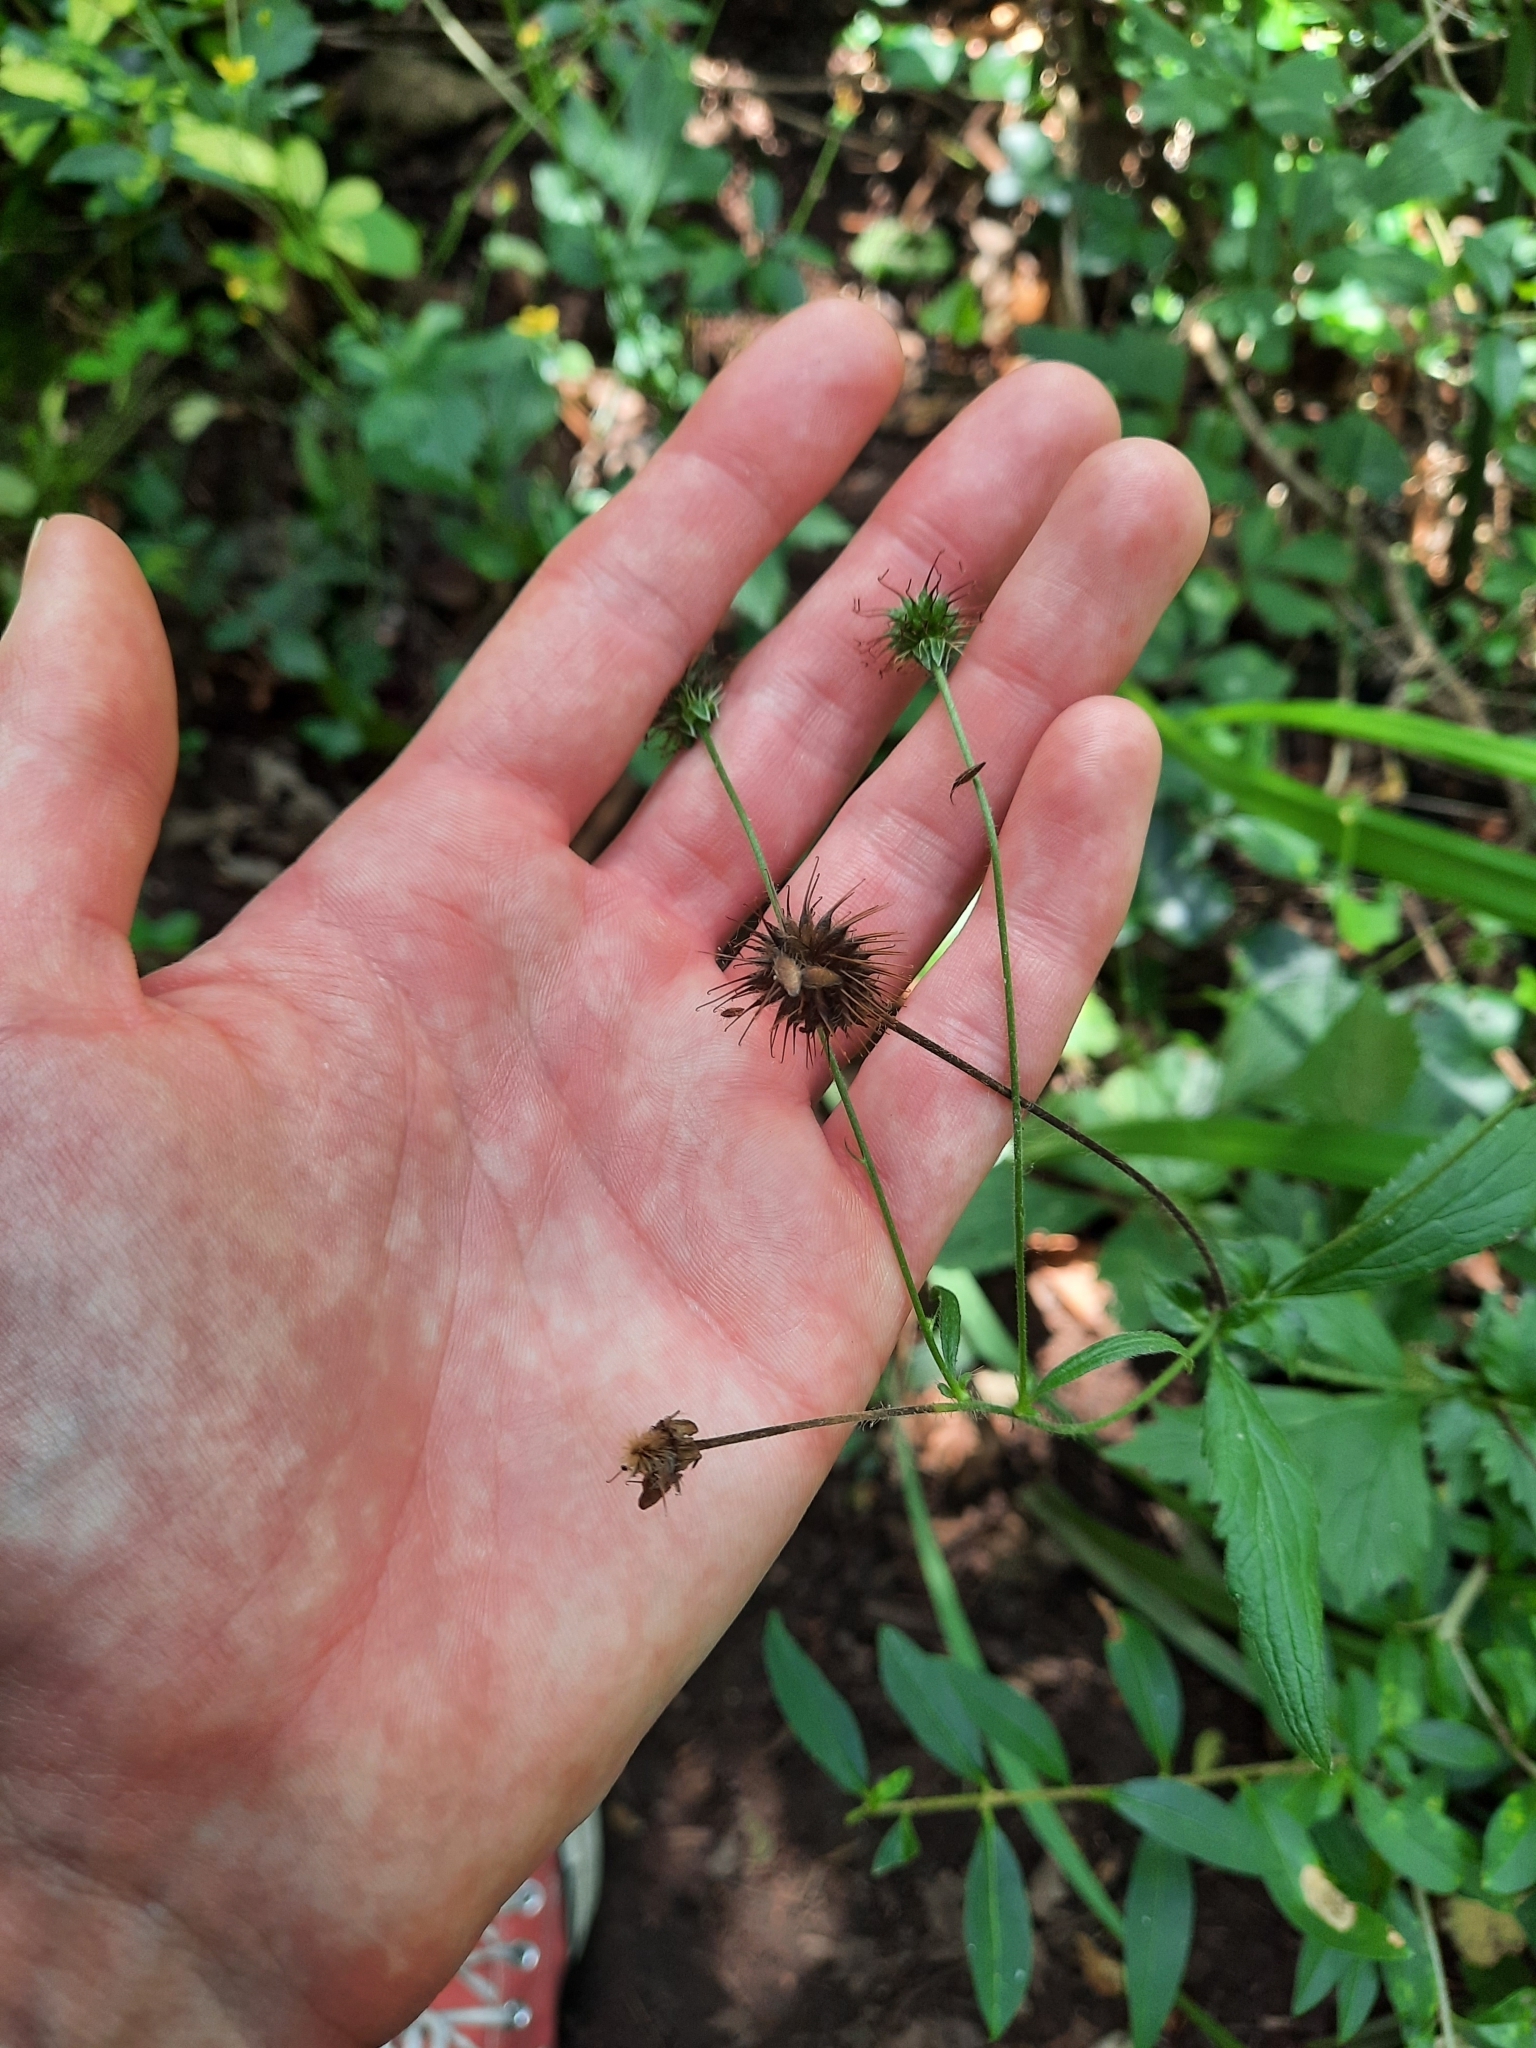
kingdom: Plantae
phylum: Tracheophyta
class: Magnoliopsida
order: Rosales
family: Rosaceae
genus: Geum
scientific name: Geum urbanum
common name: Wood avens
